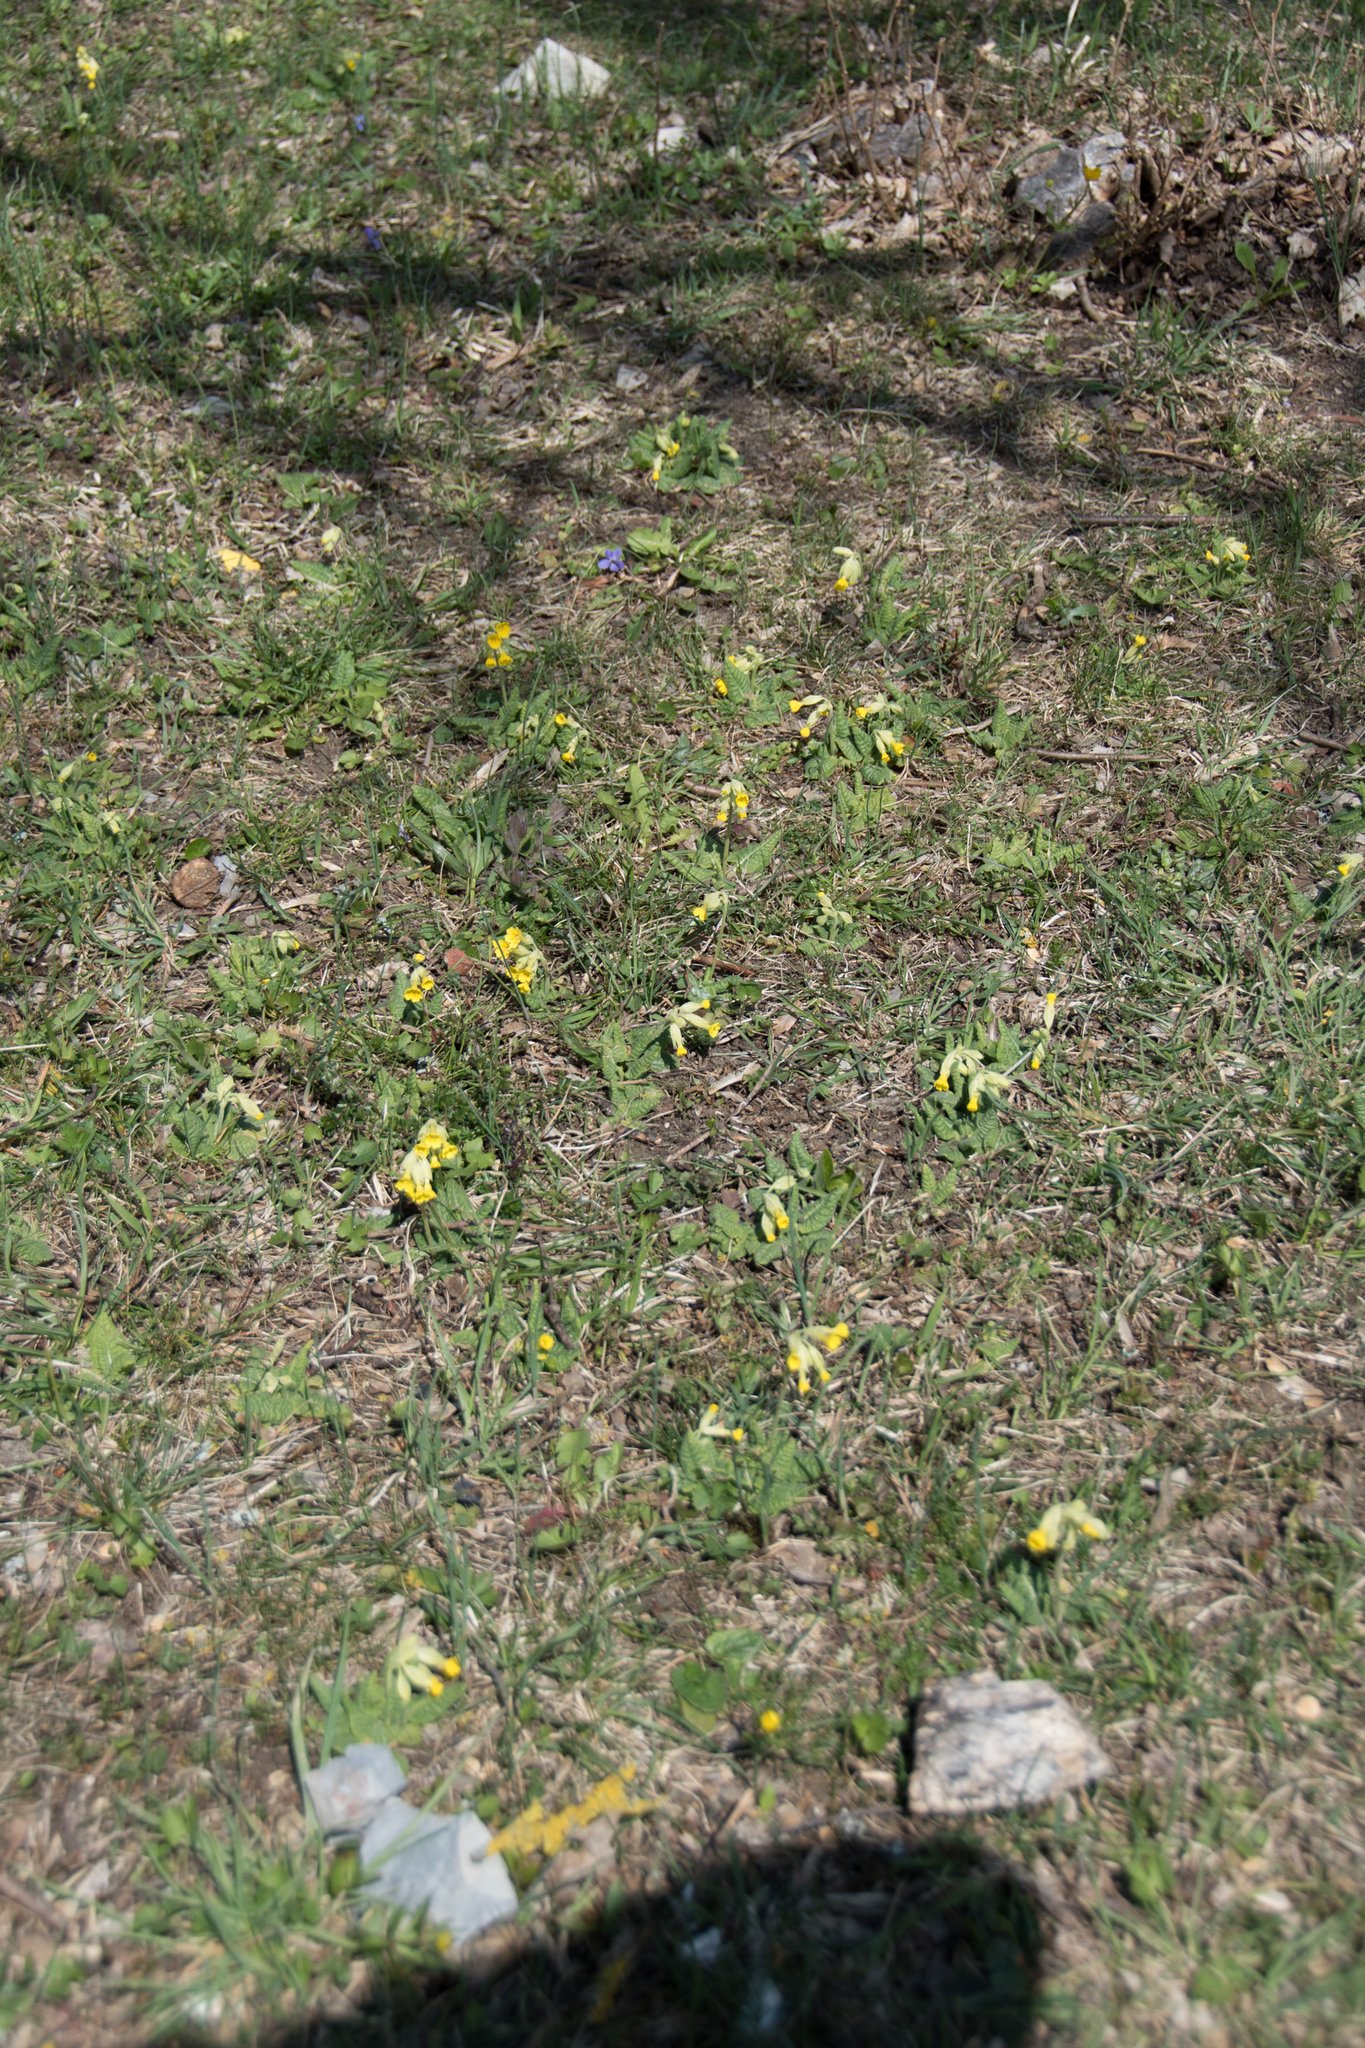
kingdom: Plantae
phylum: Tracheophyta
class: Magnoliopsida
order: Ericales
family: Primulaceae
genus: Primula
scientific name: Primula veris
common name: Cowslip
